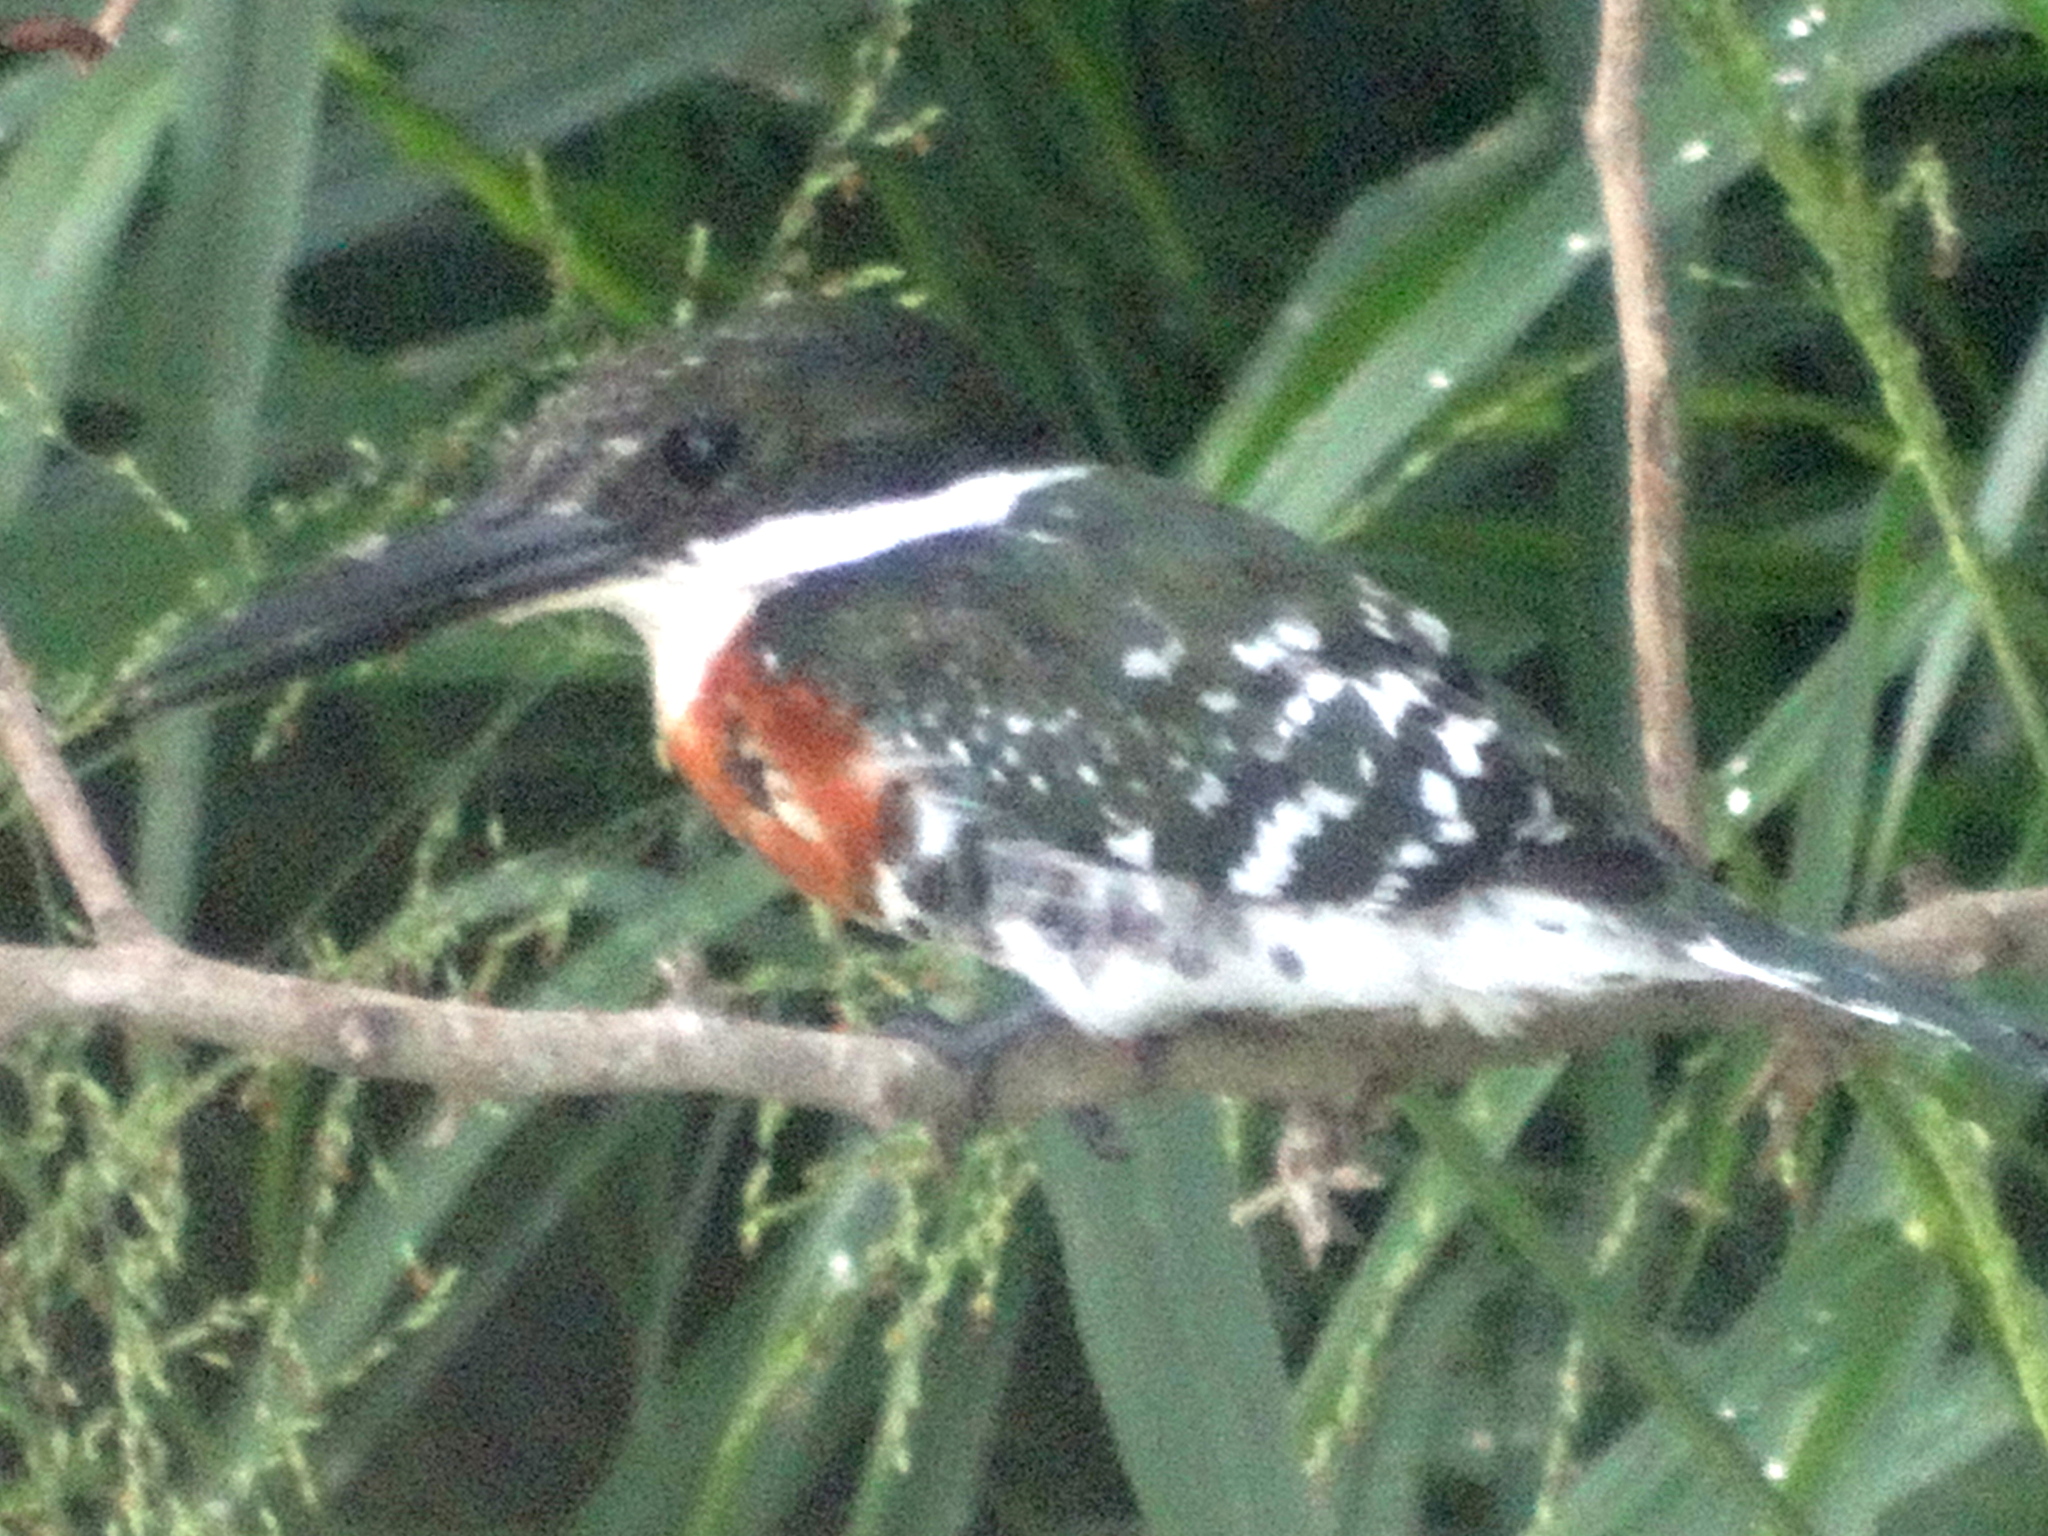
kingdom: Animalia
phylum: Chordata
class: Aves
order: Coraciiformes
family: Alcedinidae
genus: Chloroceryle
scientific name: Chloroceryle americana
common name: Green kingfisher
